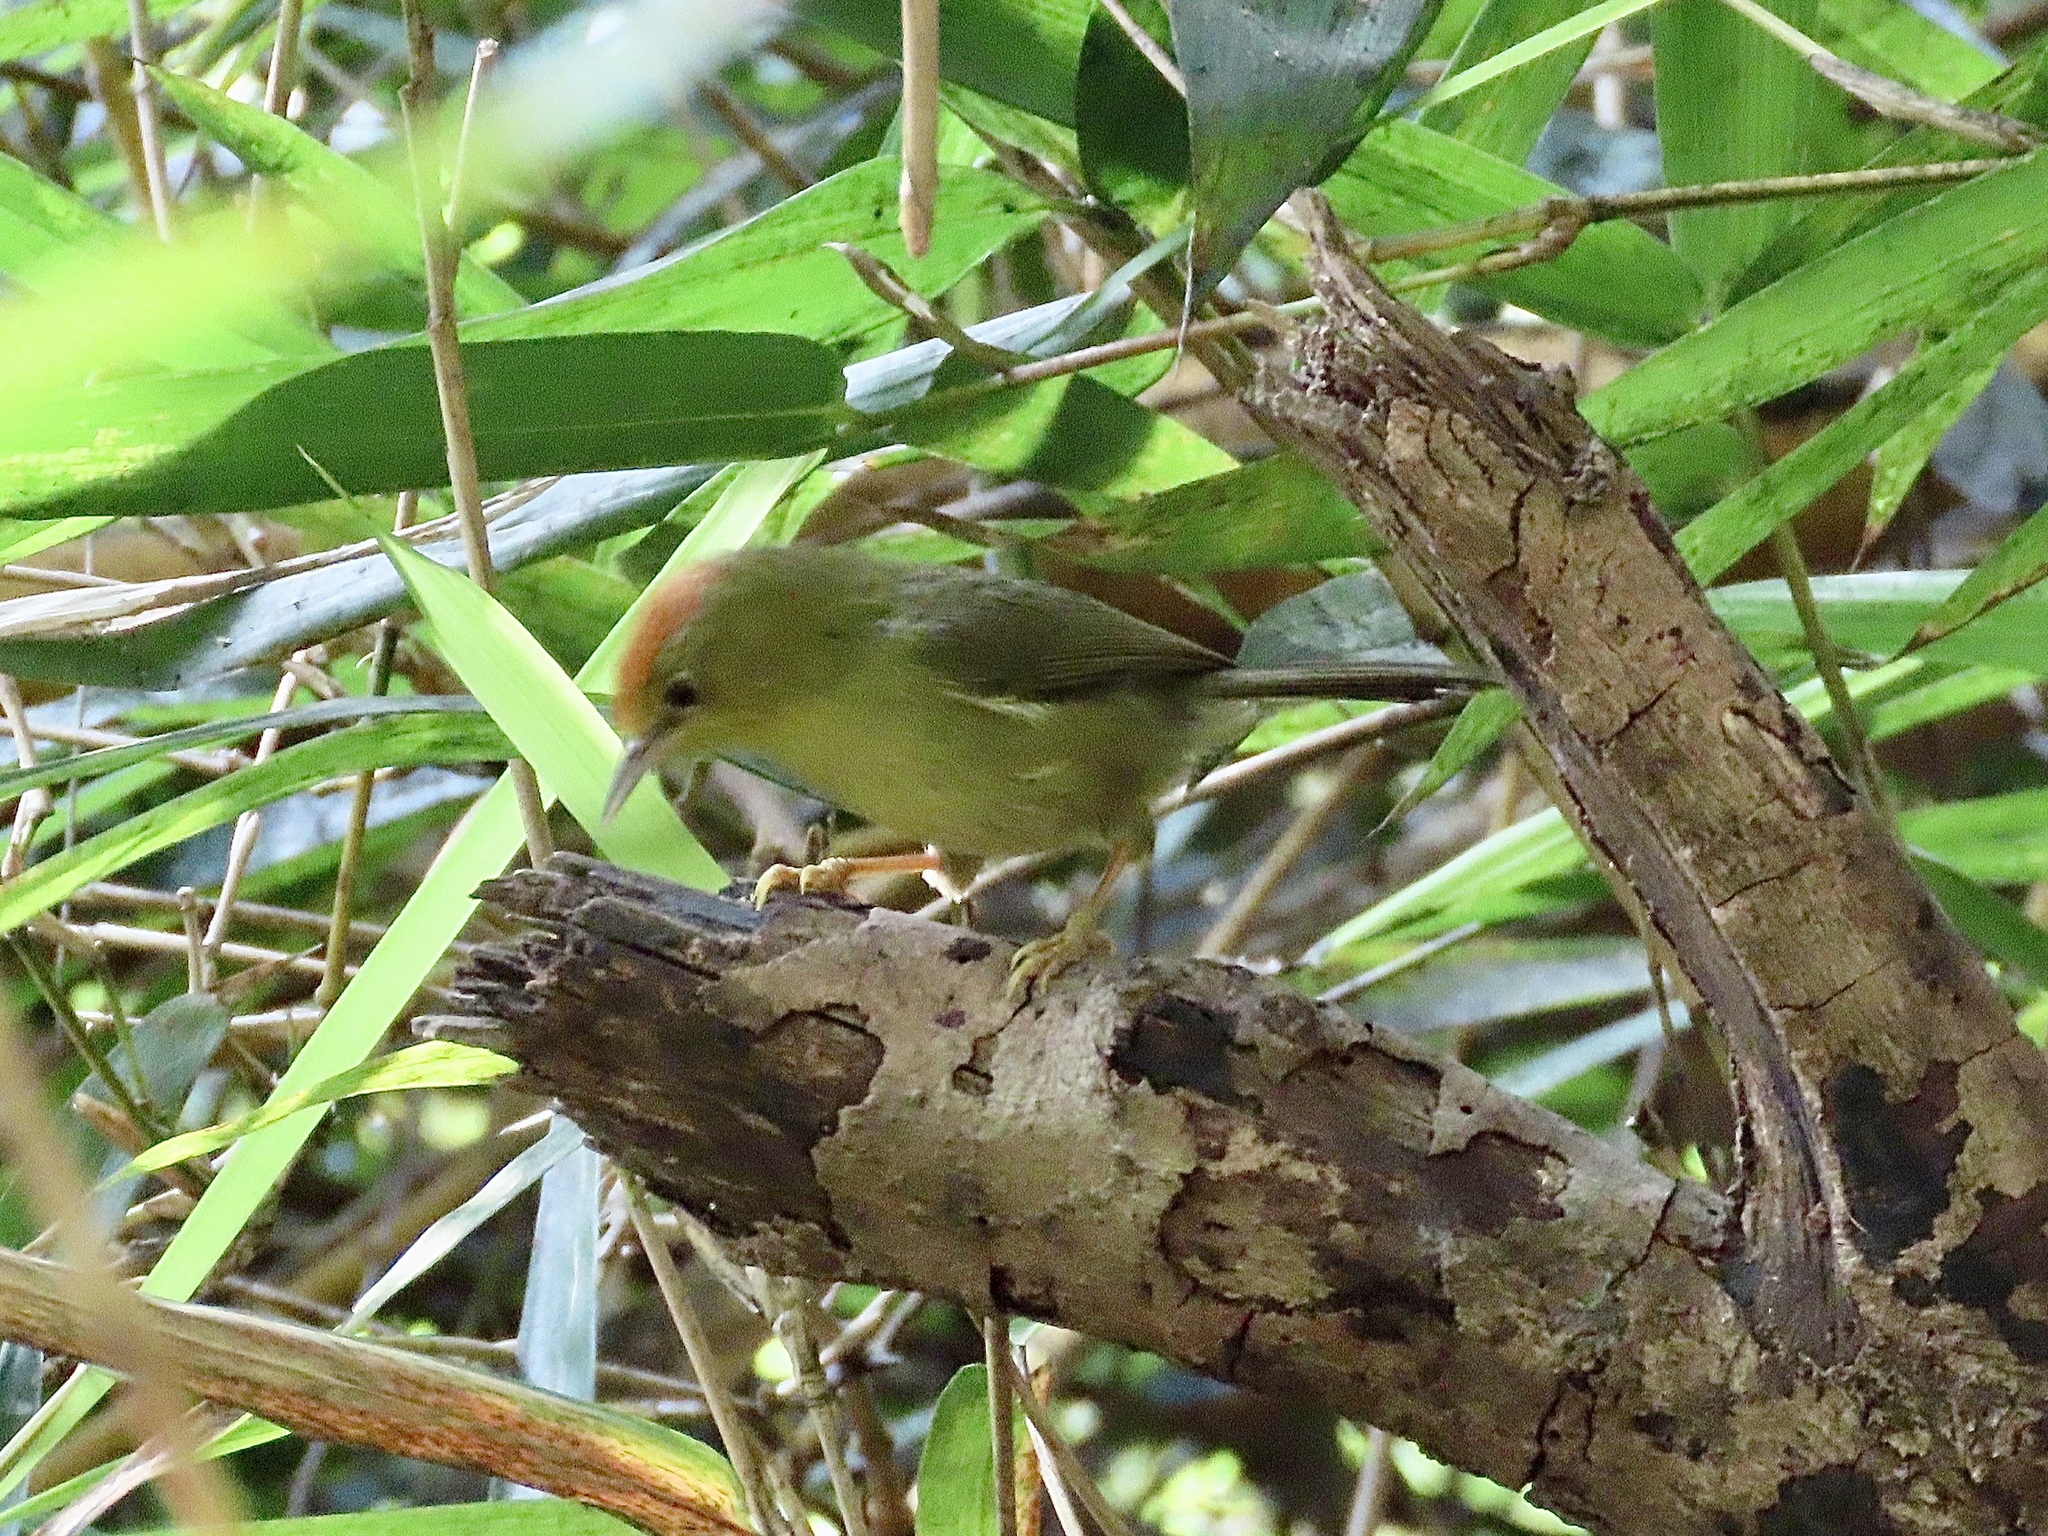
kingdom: Animalia
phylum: Chordata
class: Aves
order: Passeriformes
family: Timaliidae
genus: Stachyridopsis
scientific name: Stachyridopsis ruficeps
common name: Rufous-capped babbler
